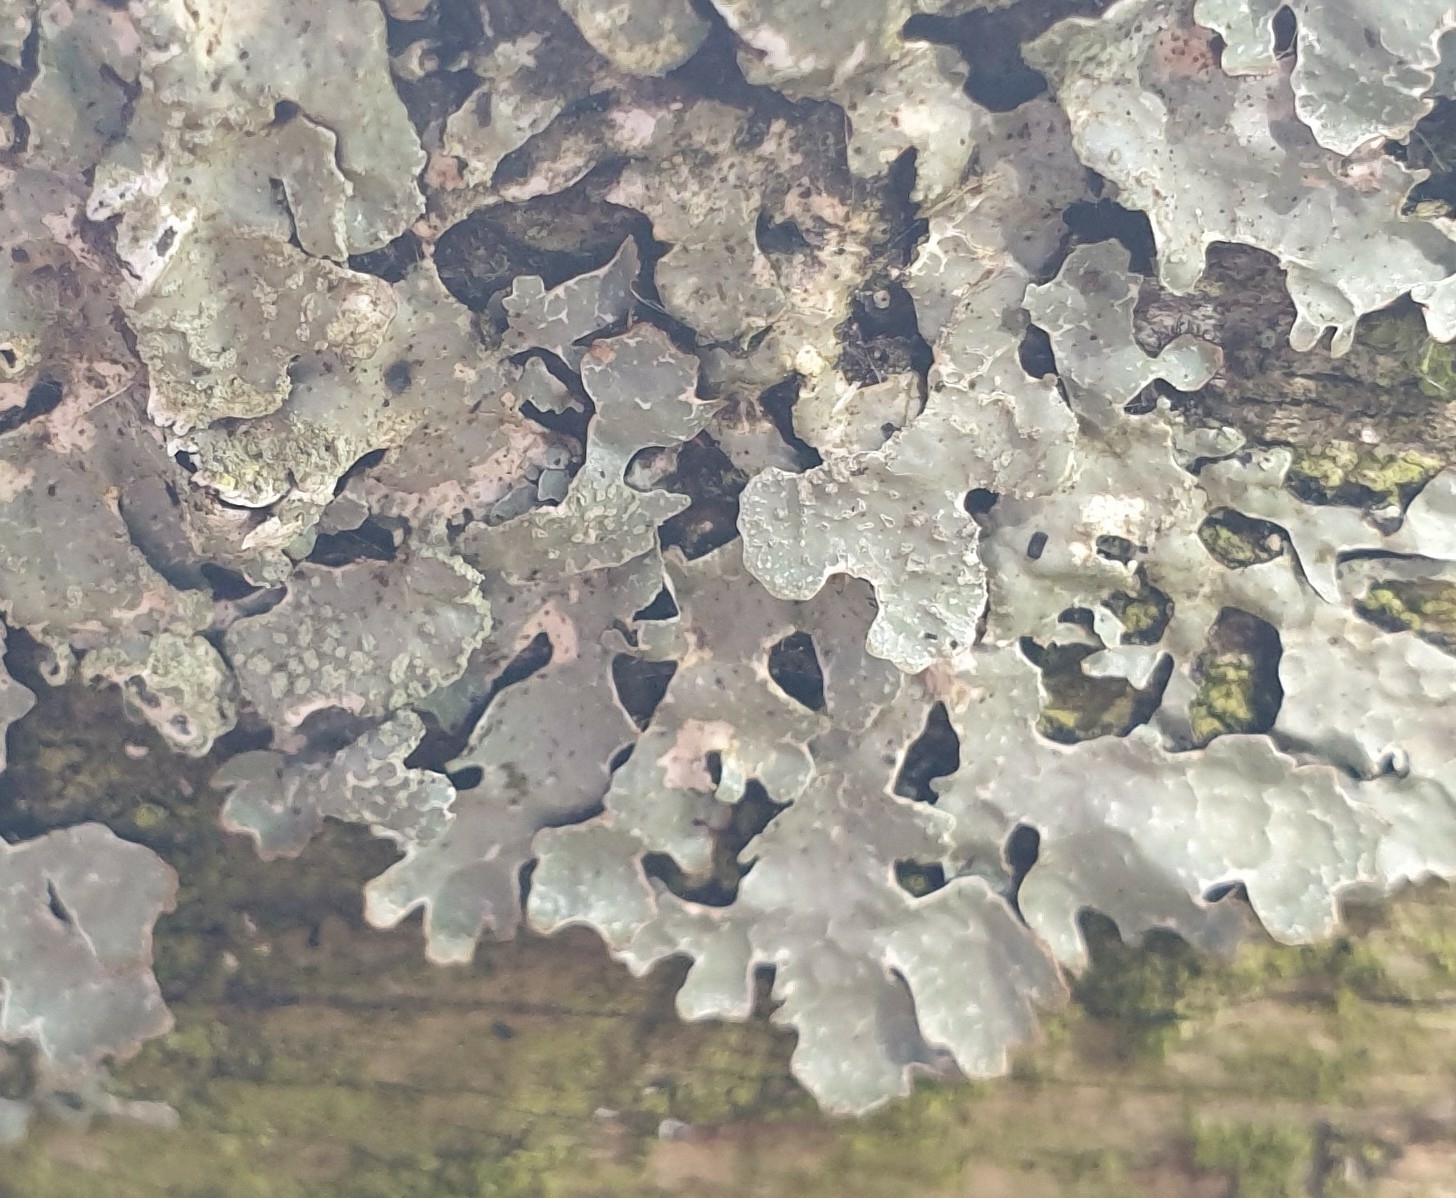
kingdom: Fungi
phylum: Ascomycota
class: Lecanoromycetes
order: Lecanorales
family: Parmeliaceae
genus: Parmelia
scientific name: Parmelia sulcata
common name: Netted shield lichen
